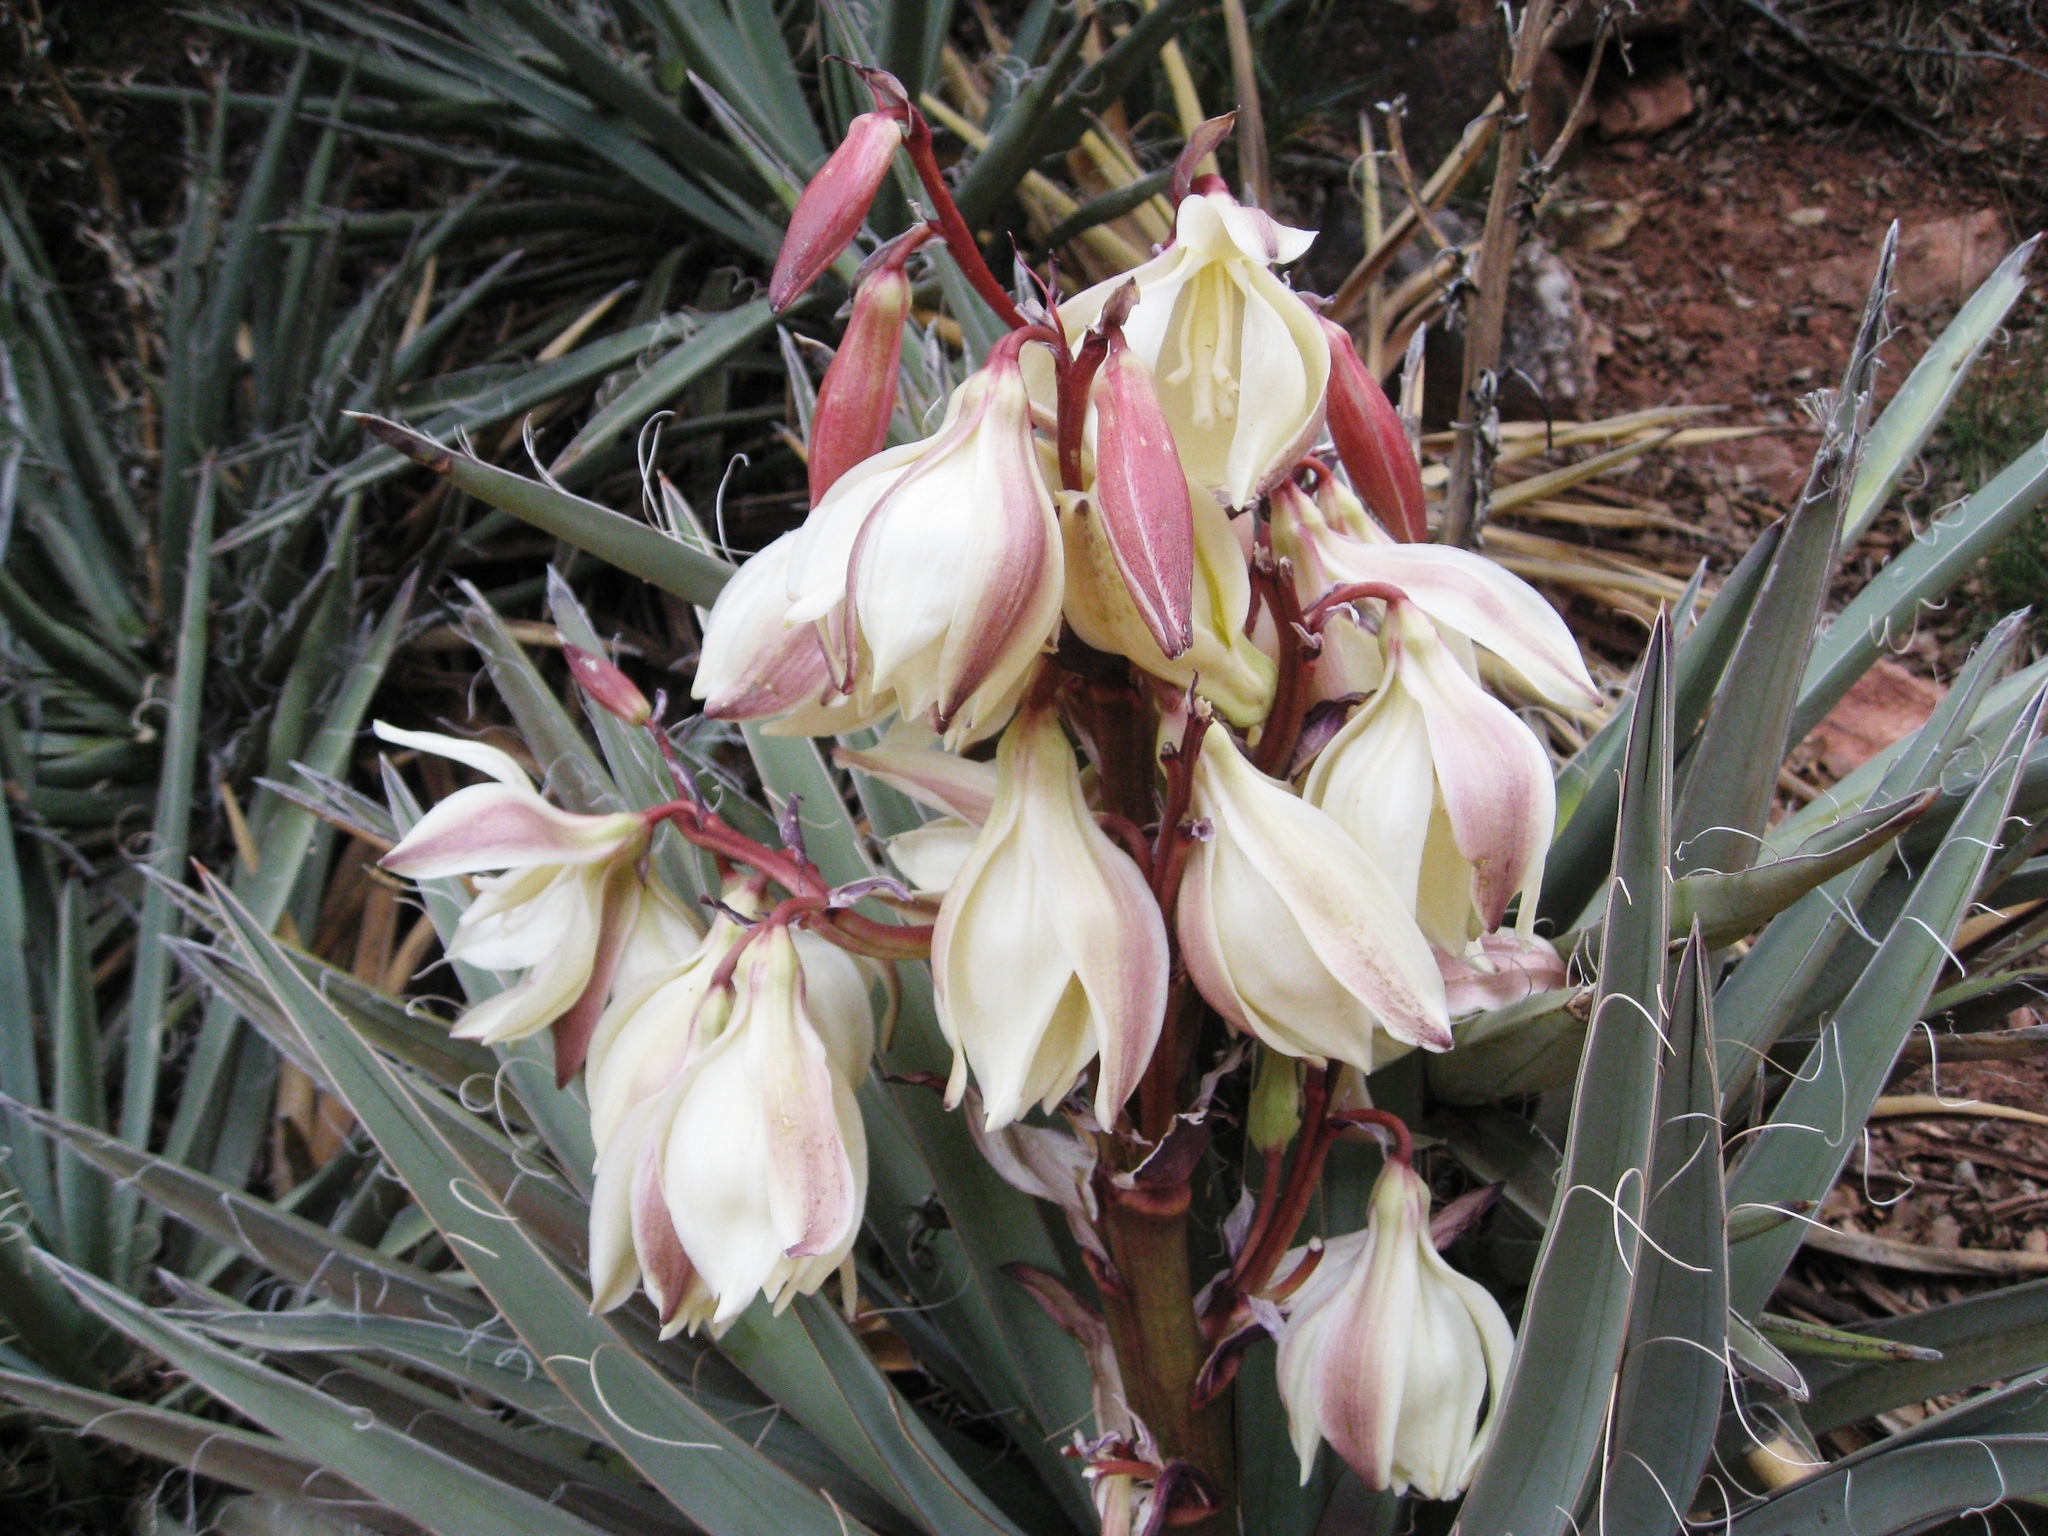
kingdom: Plantae
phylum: Tracheophyta
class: Liliopsida
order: Asparagales
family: Asparagaceae
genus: Yucca
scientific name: Yucca baccata
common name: Banana yucca
